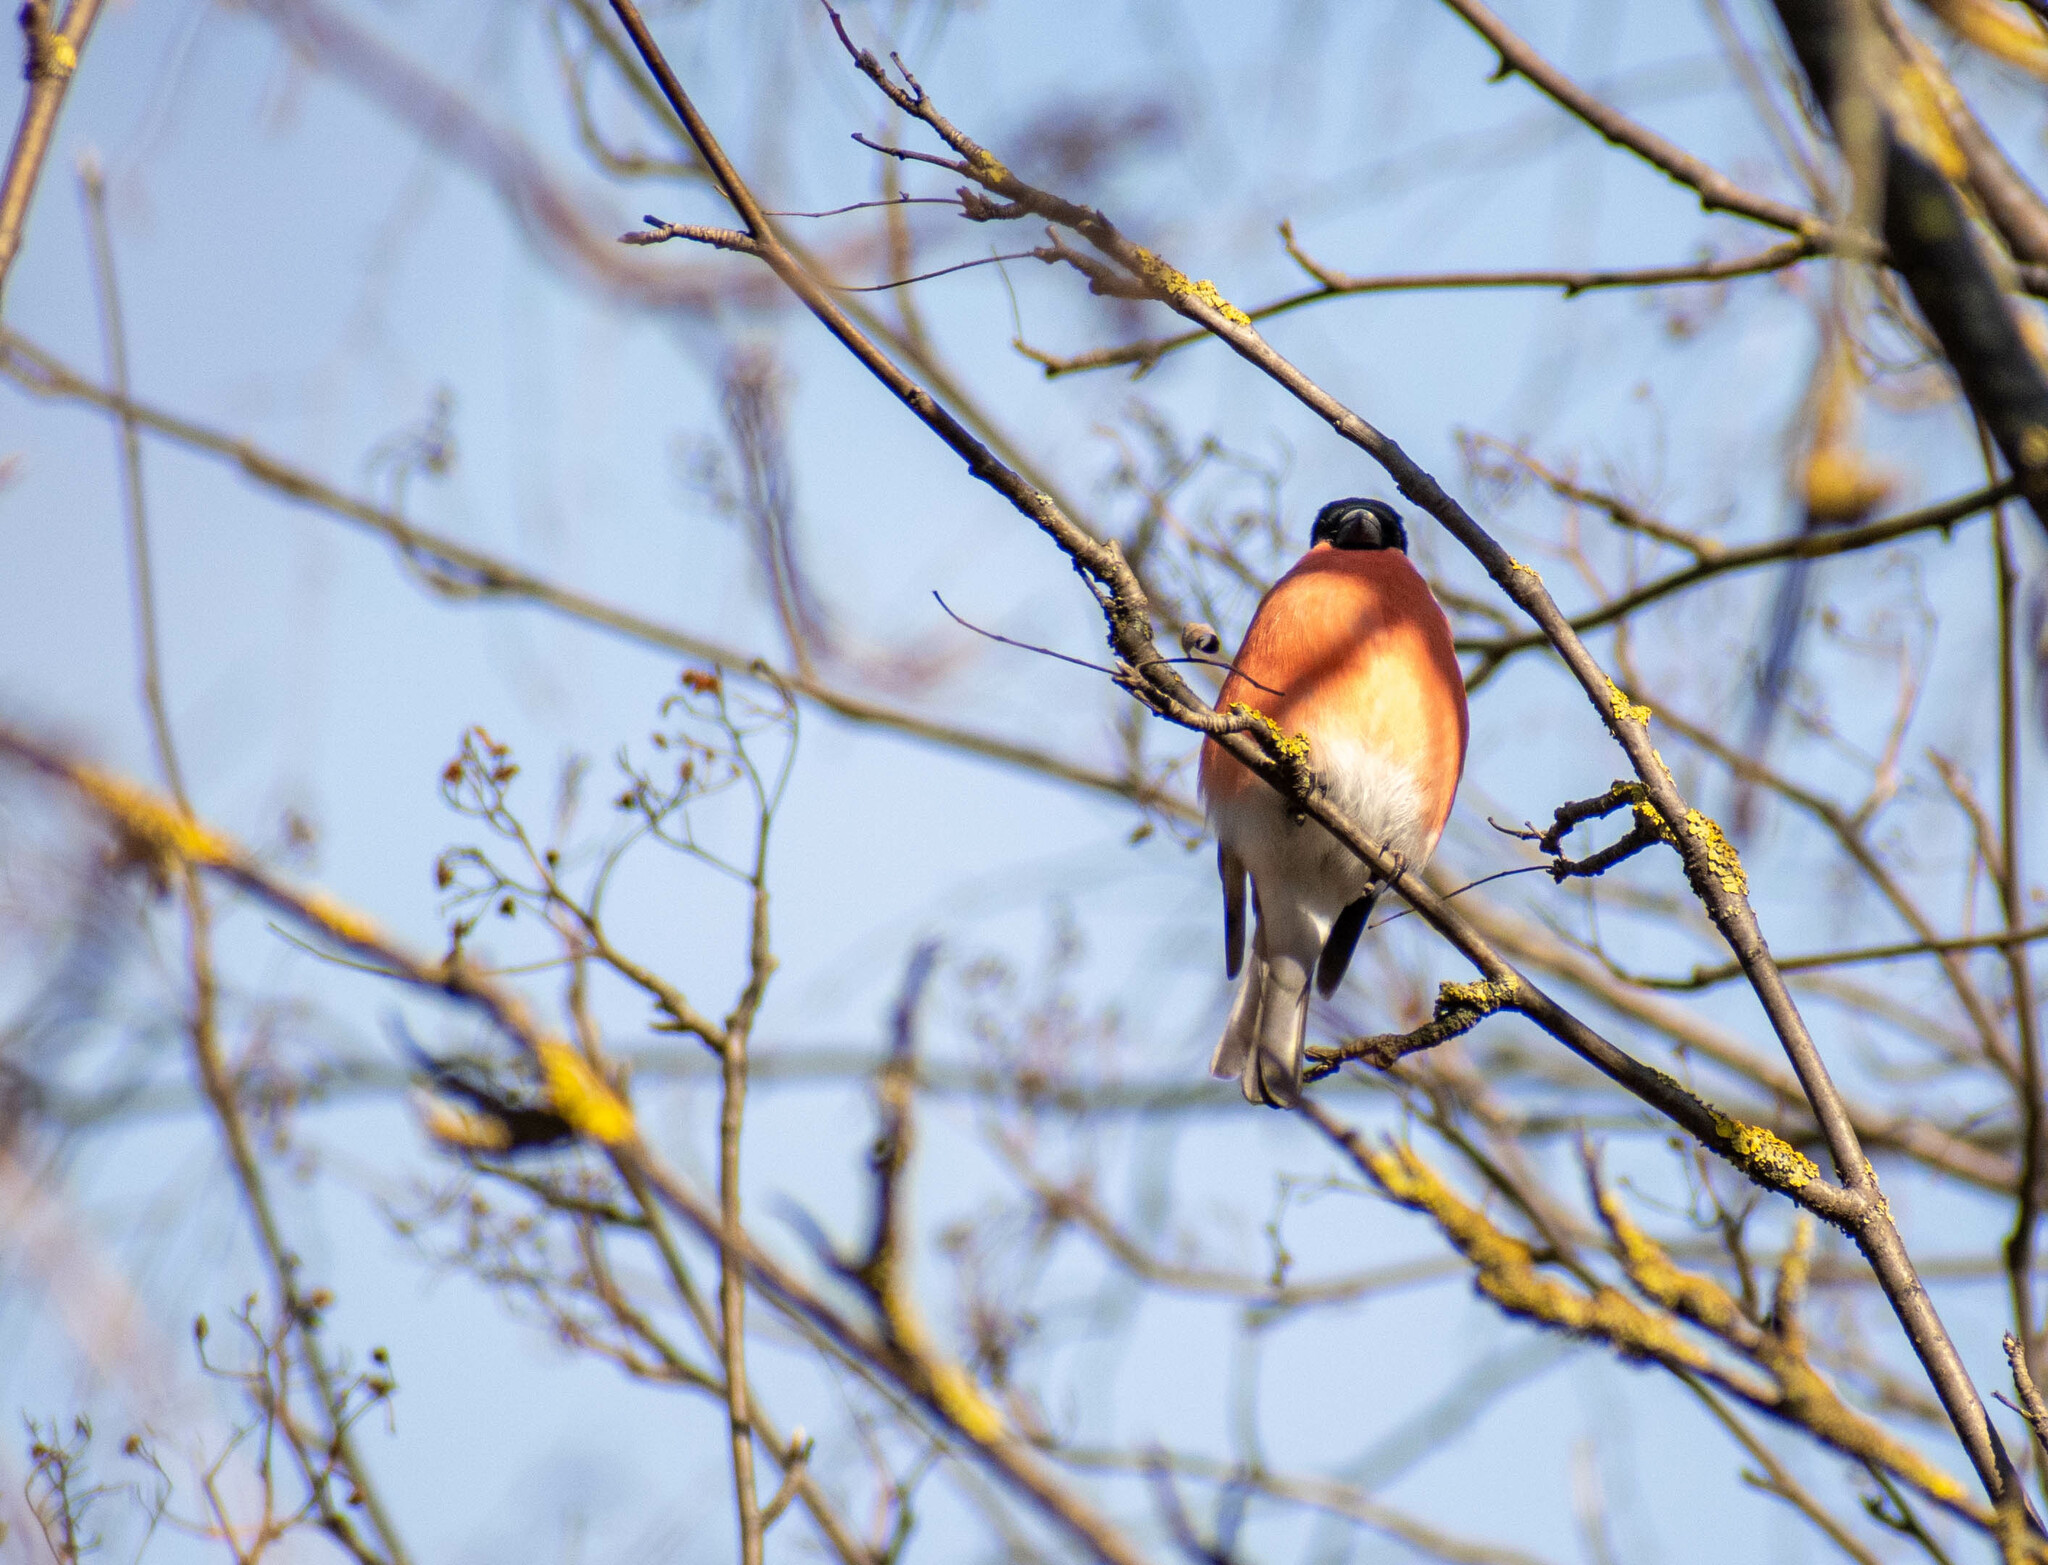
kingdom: Animalia
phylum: Chordata
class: Aves
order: Passeriformes
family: Fringillidae
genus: Pyrrhula
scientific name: Pyrrhula pyrrhula
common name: Eurasian bullfinch
